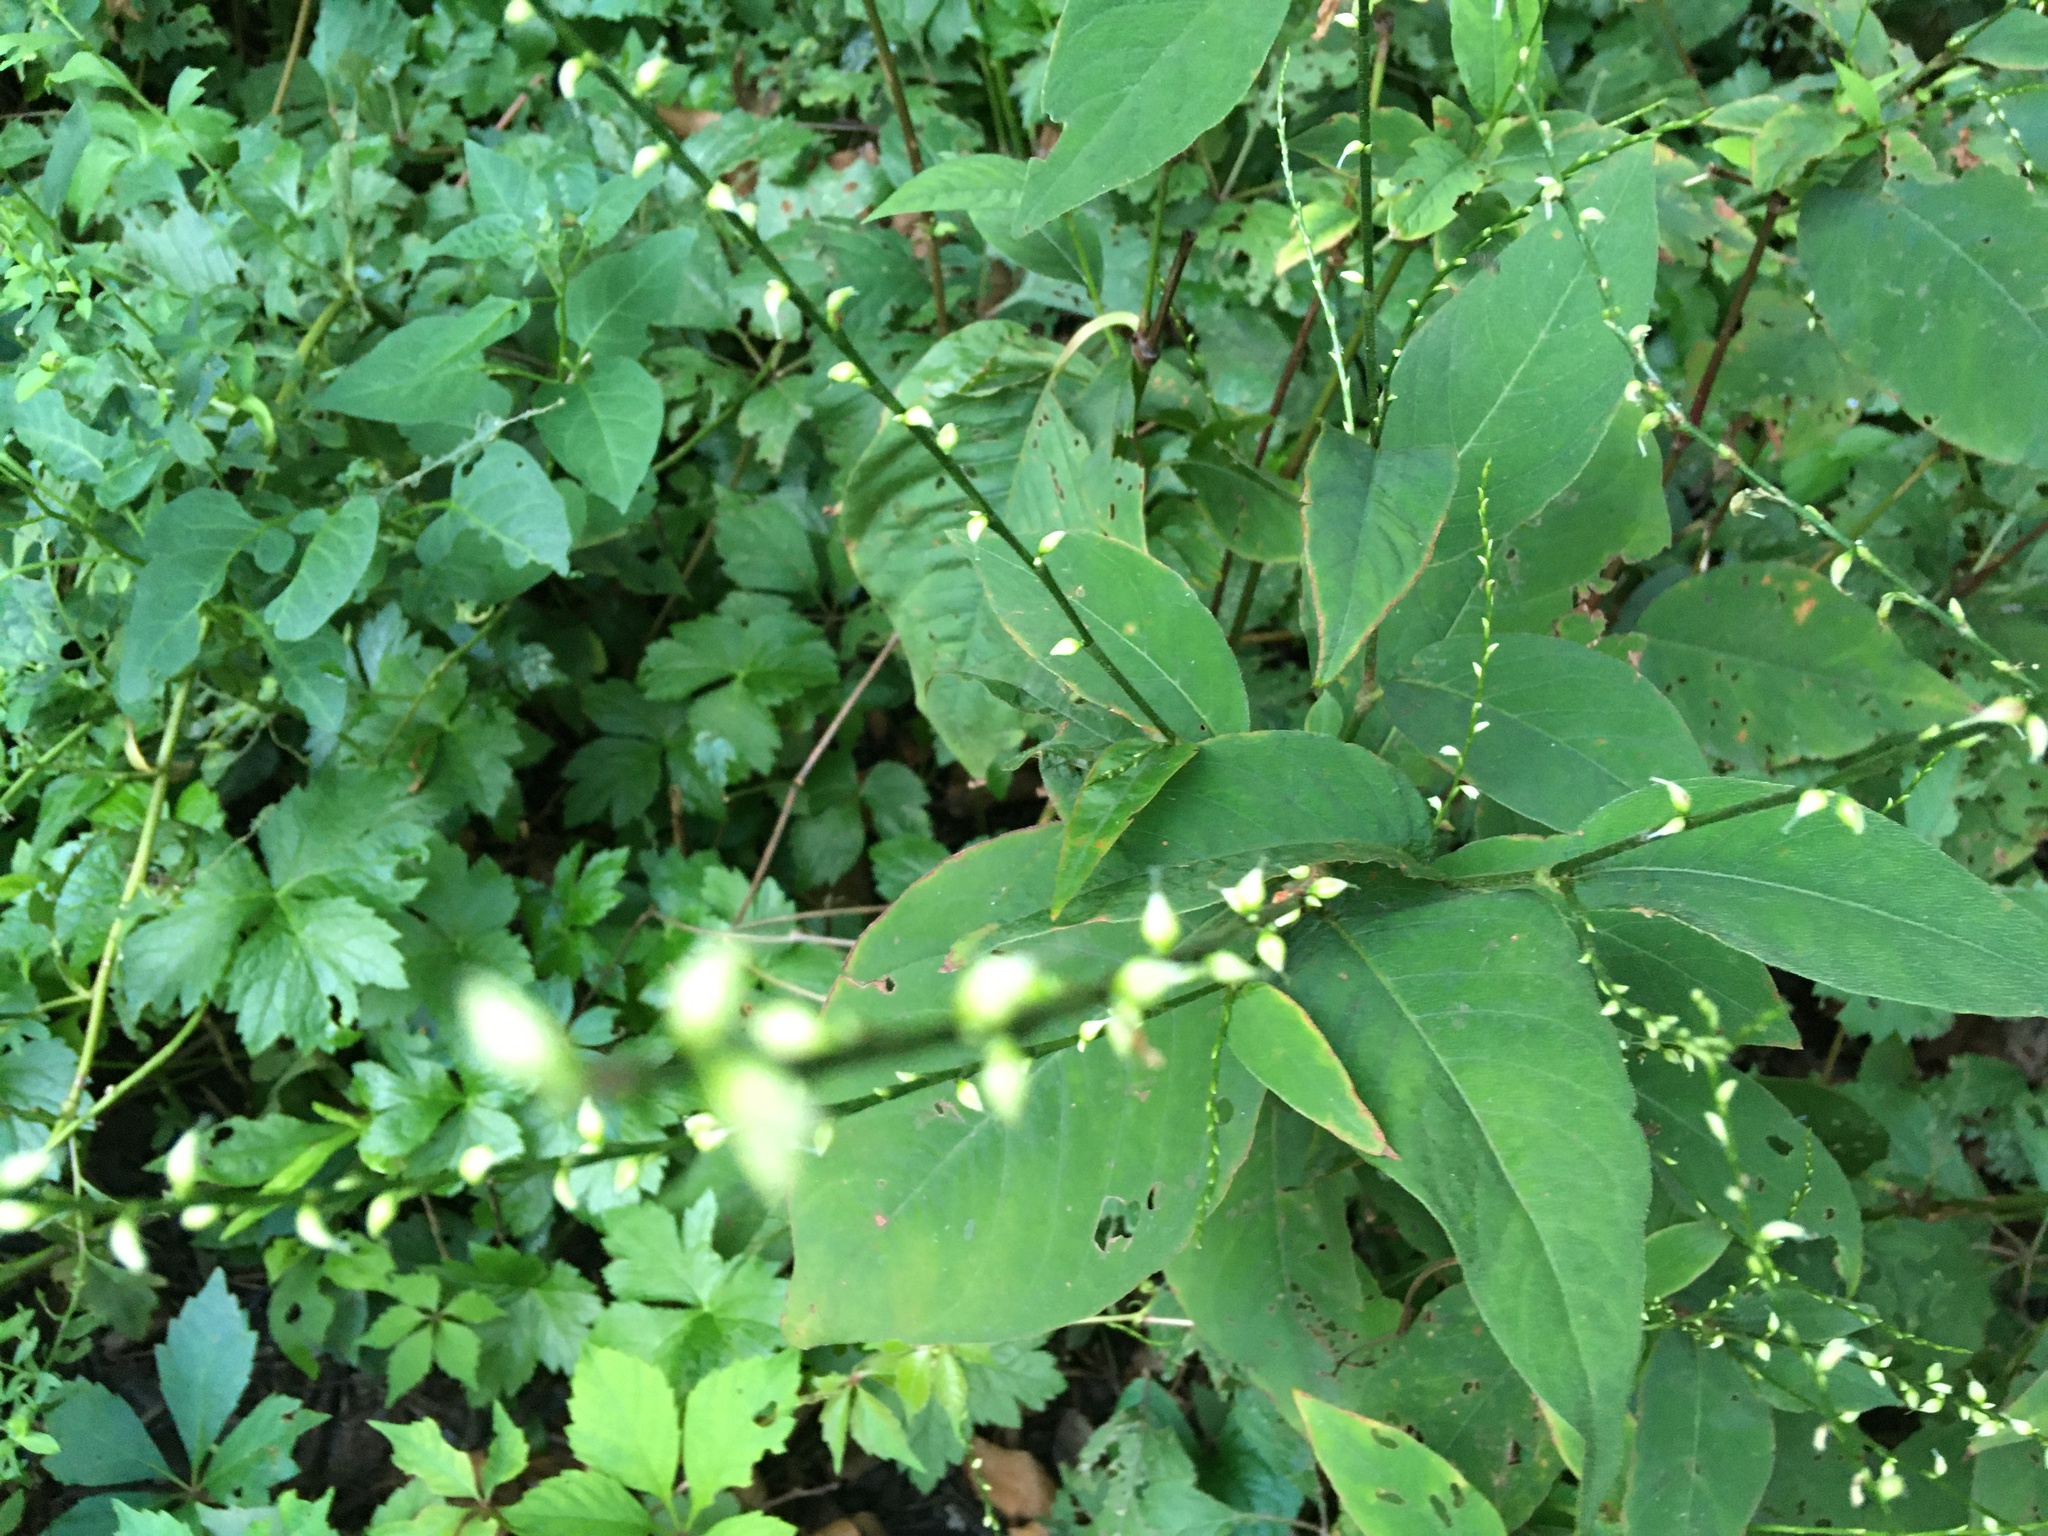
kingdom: Plantae
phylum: Tracheophyta
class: Magnoliopsida
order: Caryophyllales
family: Polygonaceae
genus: Persicaria
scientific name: Persicaria virginiana
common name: Jumpseed
